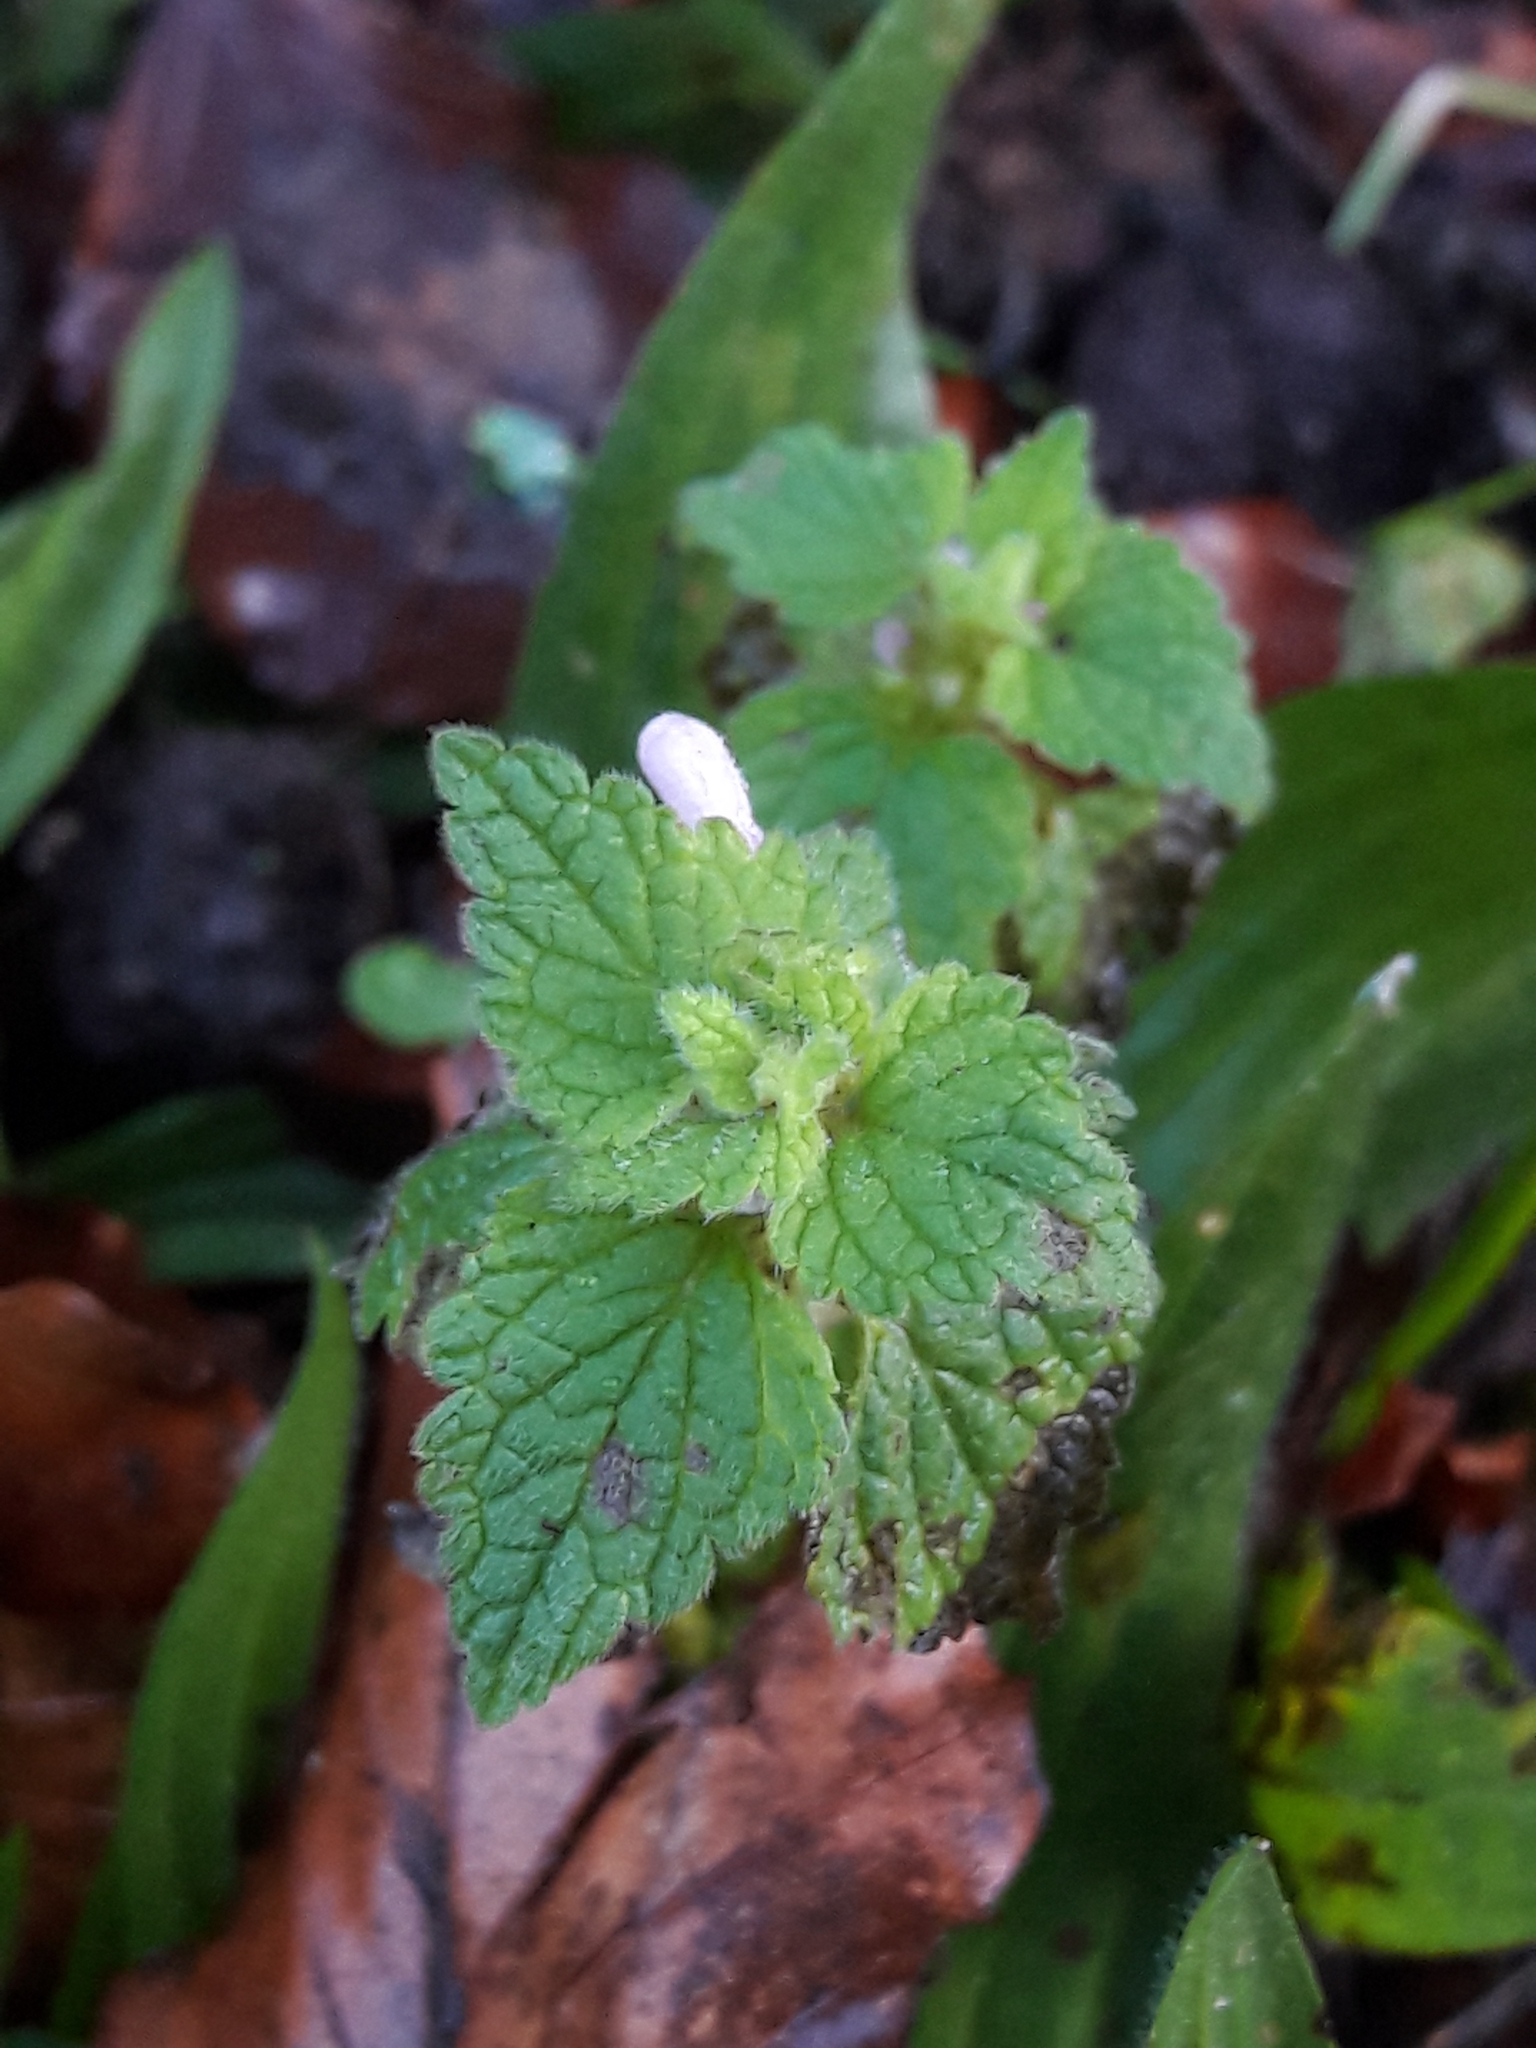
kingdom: Plantae
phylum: Tracheophyta
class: Magnoliopsida
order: Lamiales
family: Lamiaceae
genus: Lamium
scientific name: Lamium purpureum
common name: Red dead-nettle
